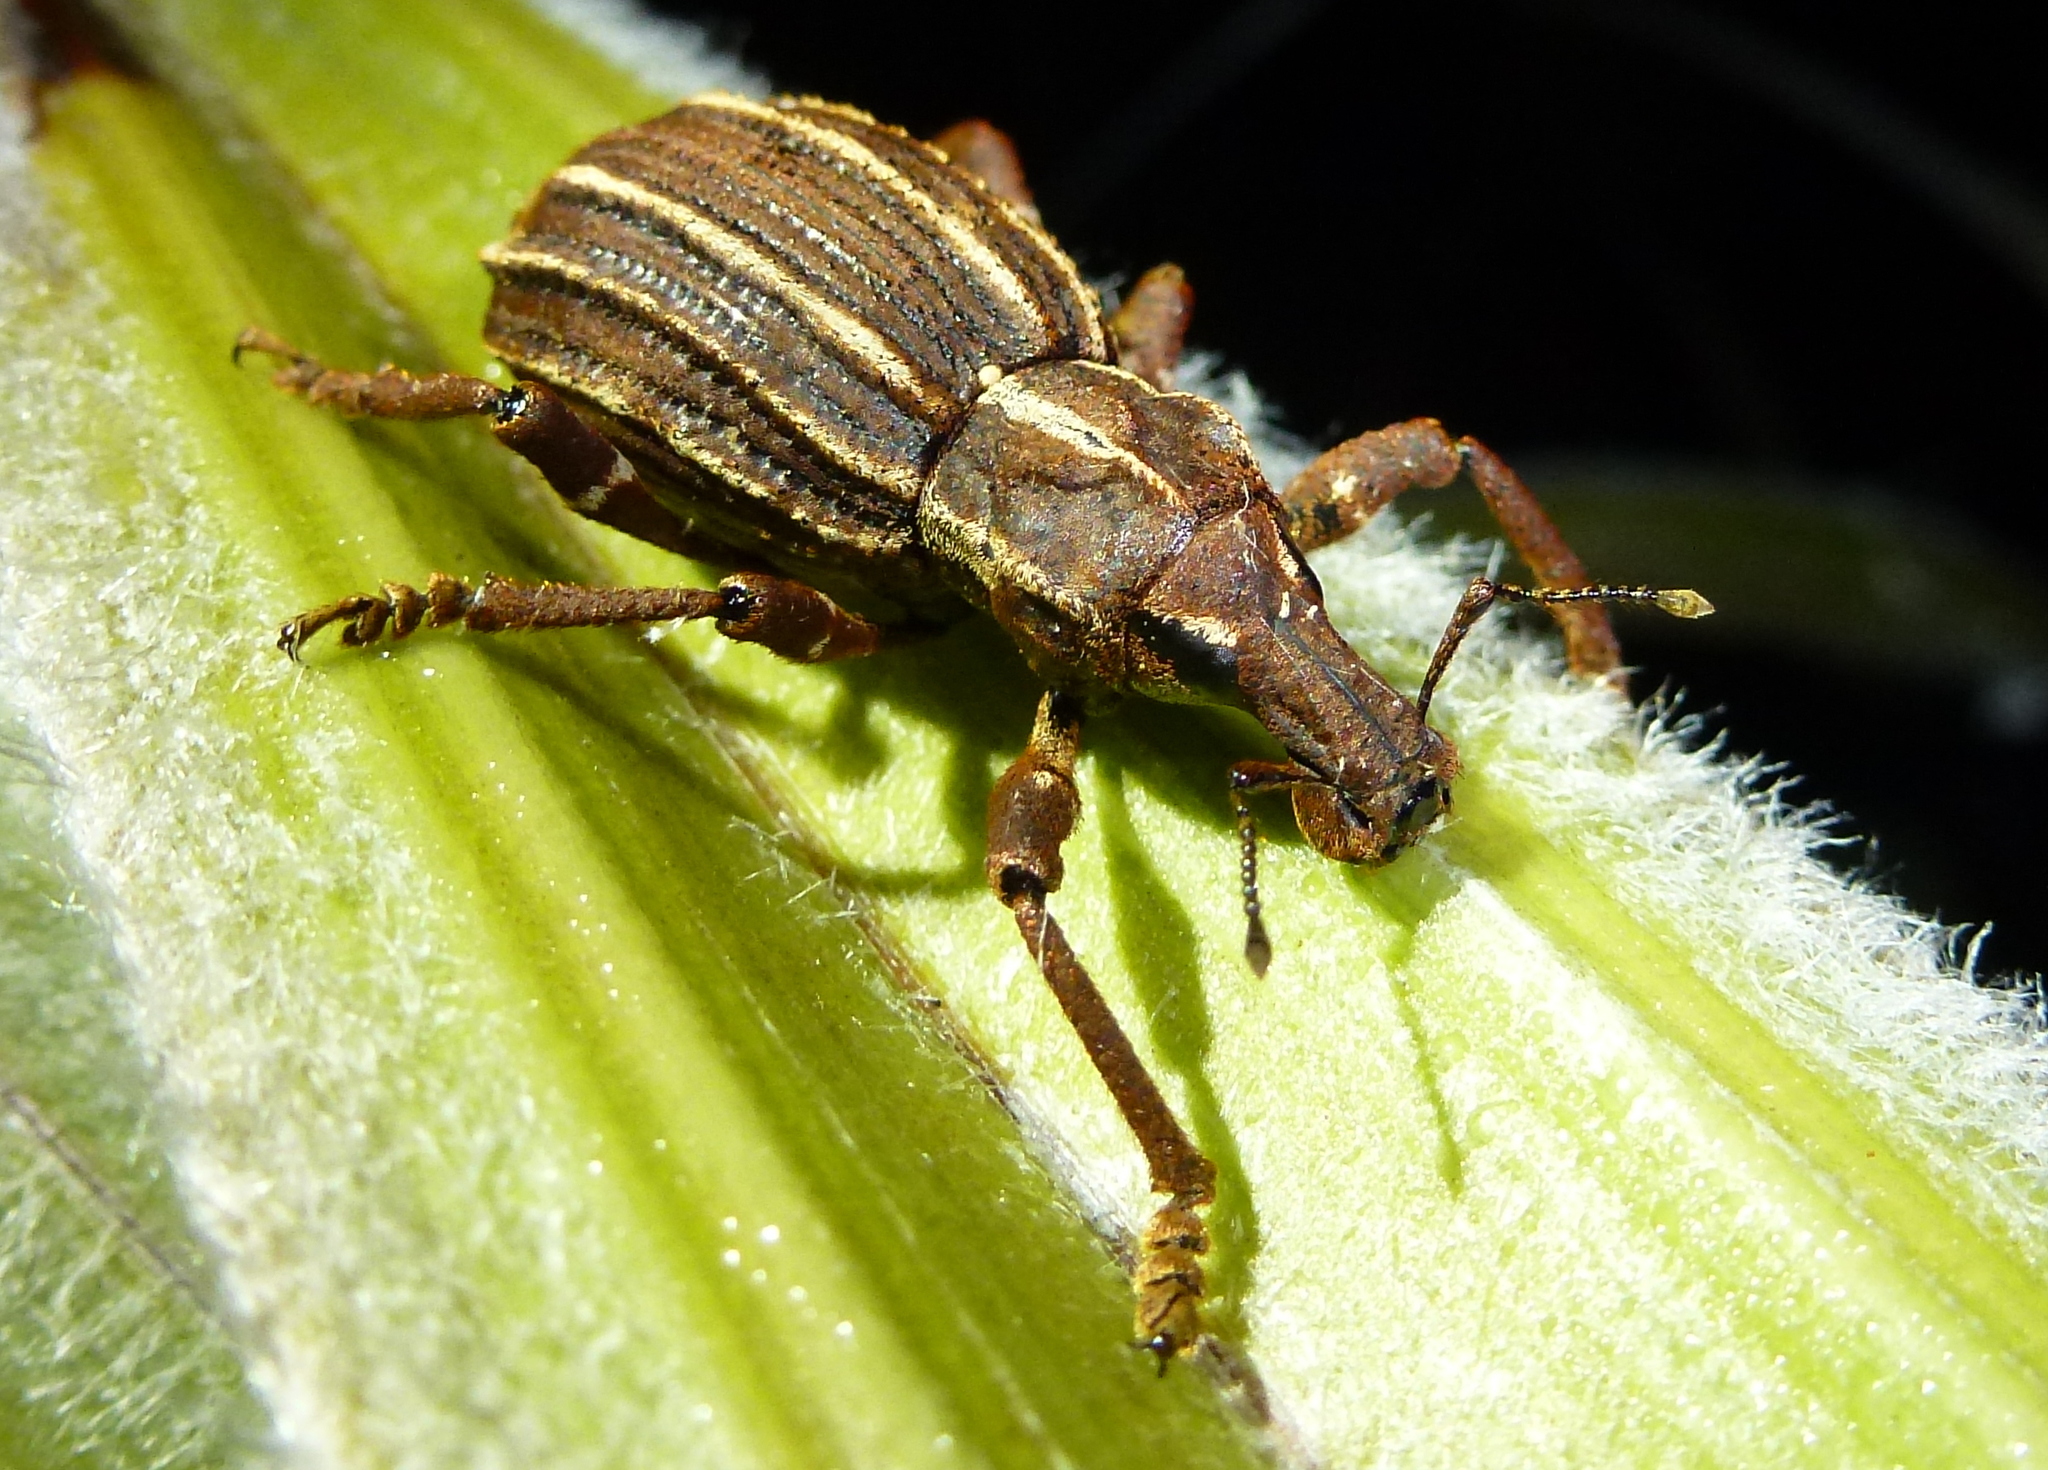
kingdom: Animalia
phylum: Arthropoda
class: Insecta
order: Coleoptera
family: Curculionidae
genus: Anagotus
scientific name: Anagotus
